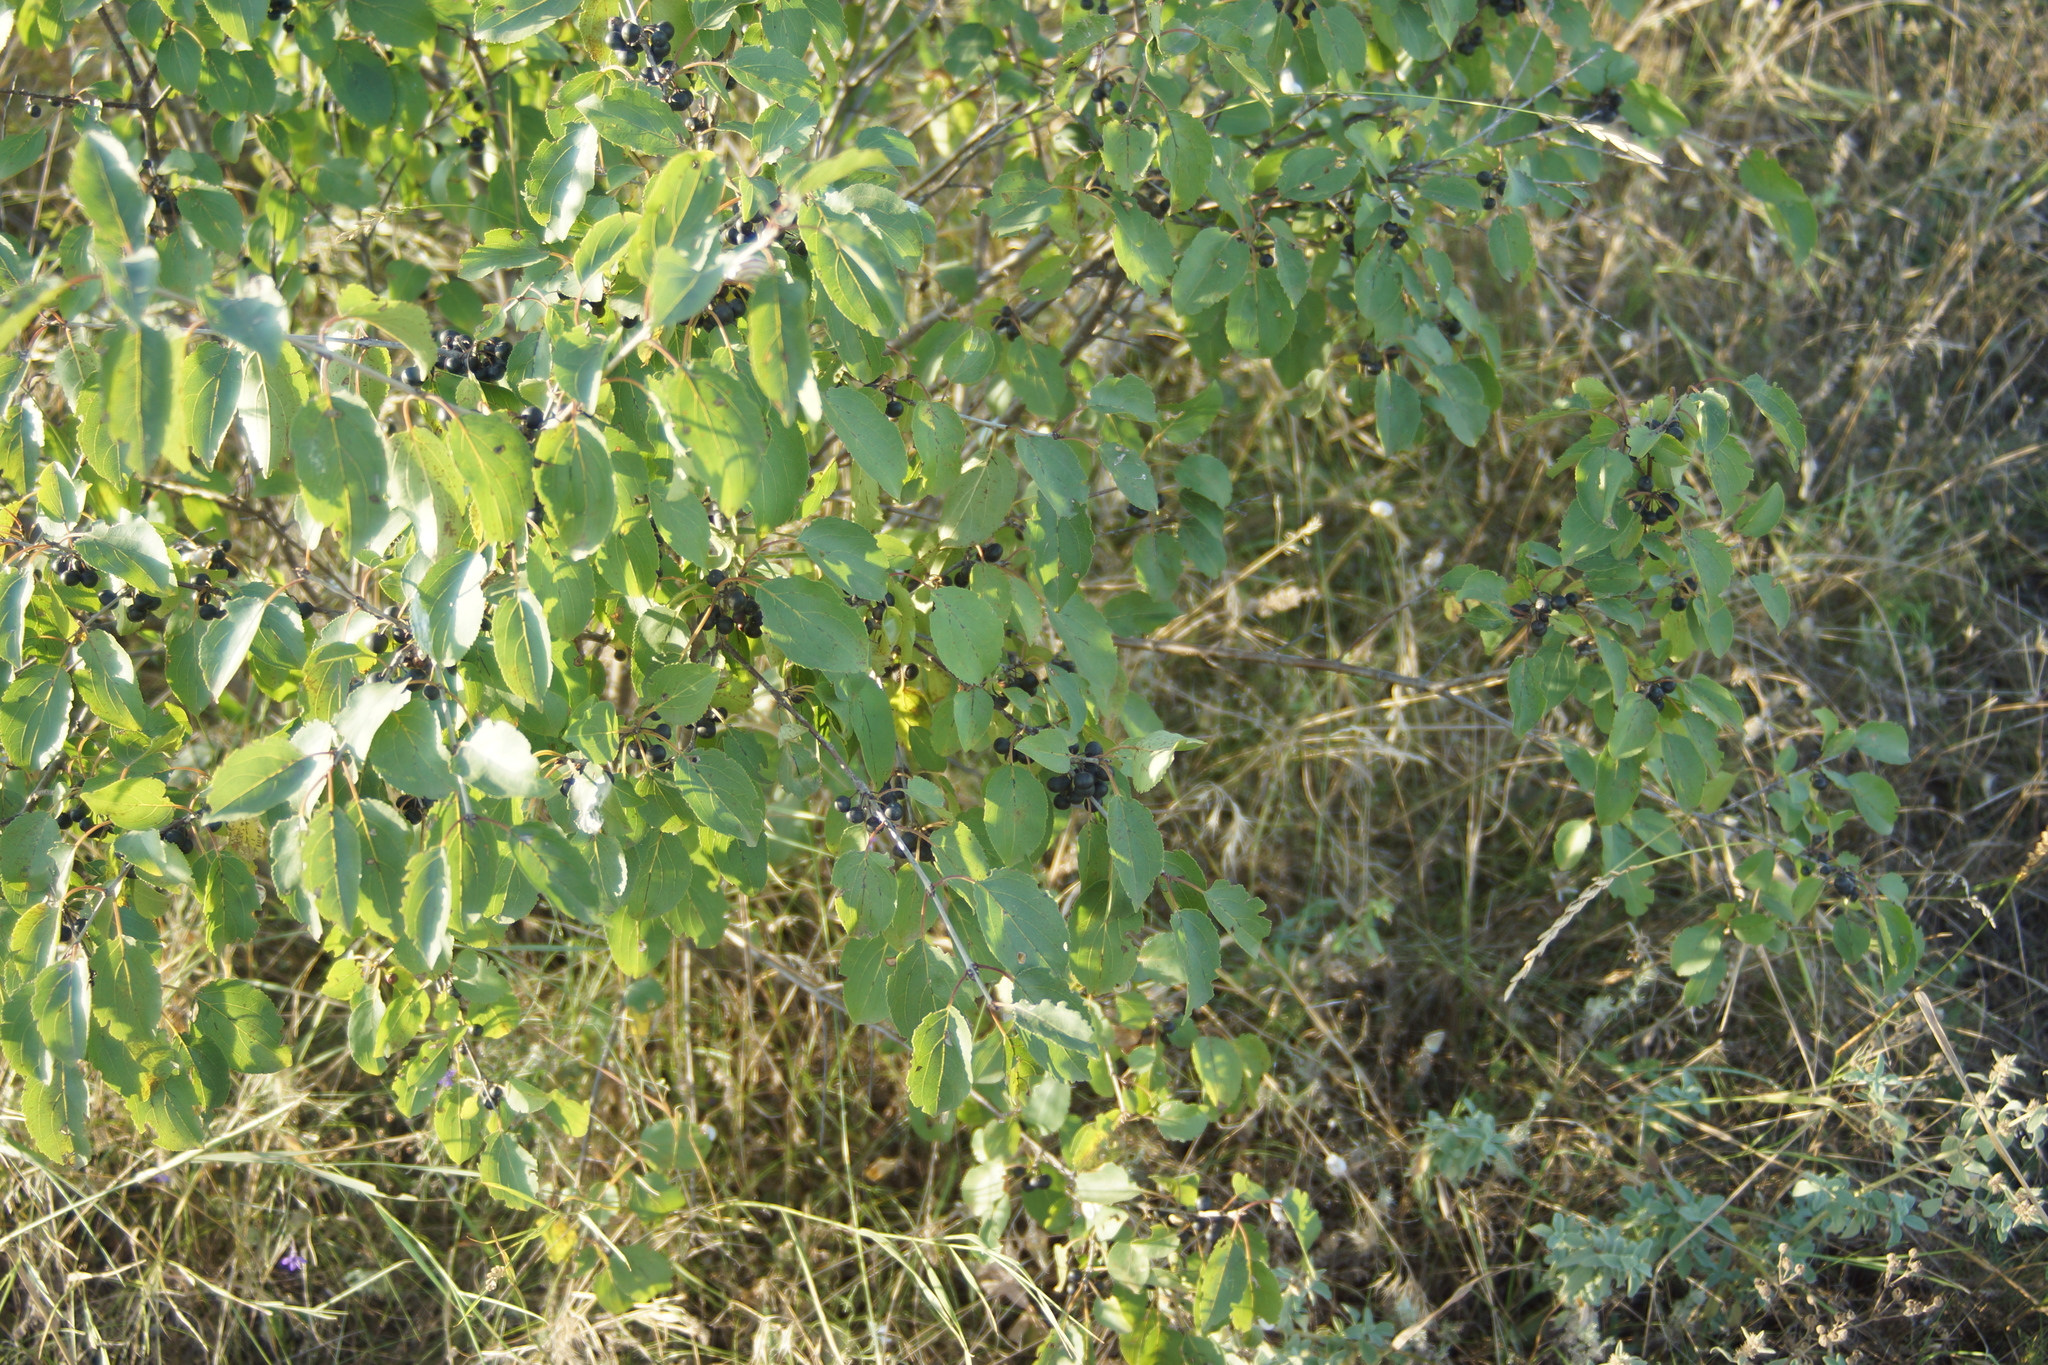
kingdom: Plantae
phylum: Tracheophyta
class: Magnoliopsida
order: Rosales
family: Rhamnaceae
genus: Rhamnus
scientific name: Rhamnus cathartica
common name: Common buckthorn
